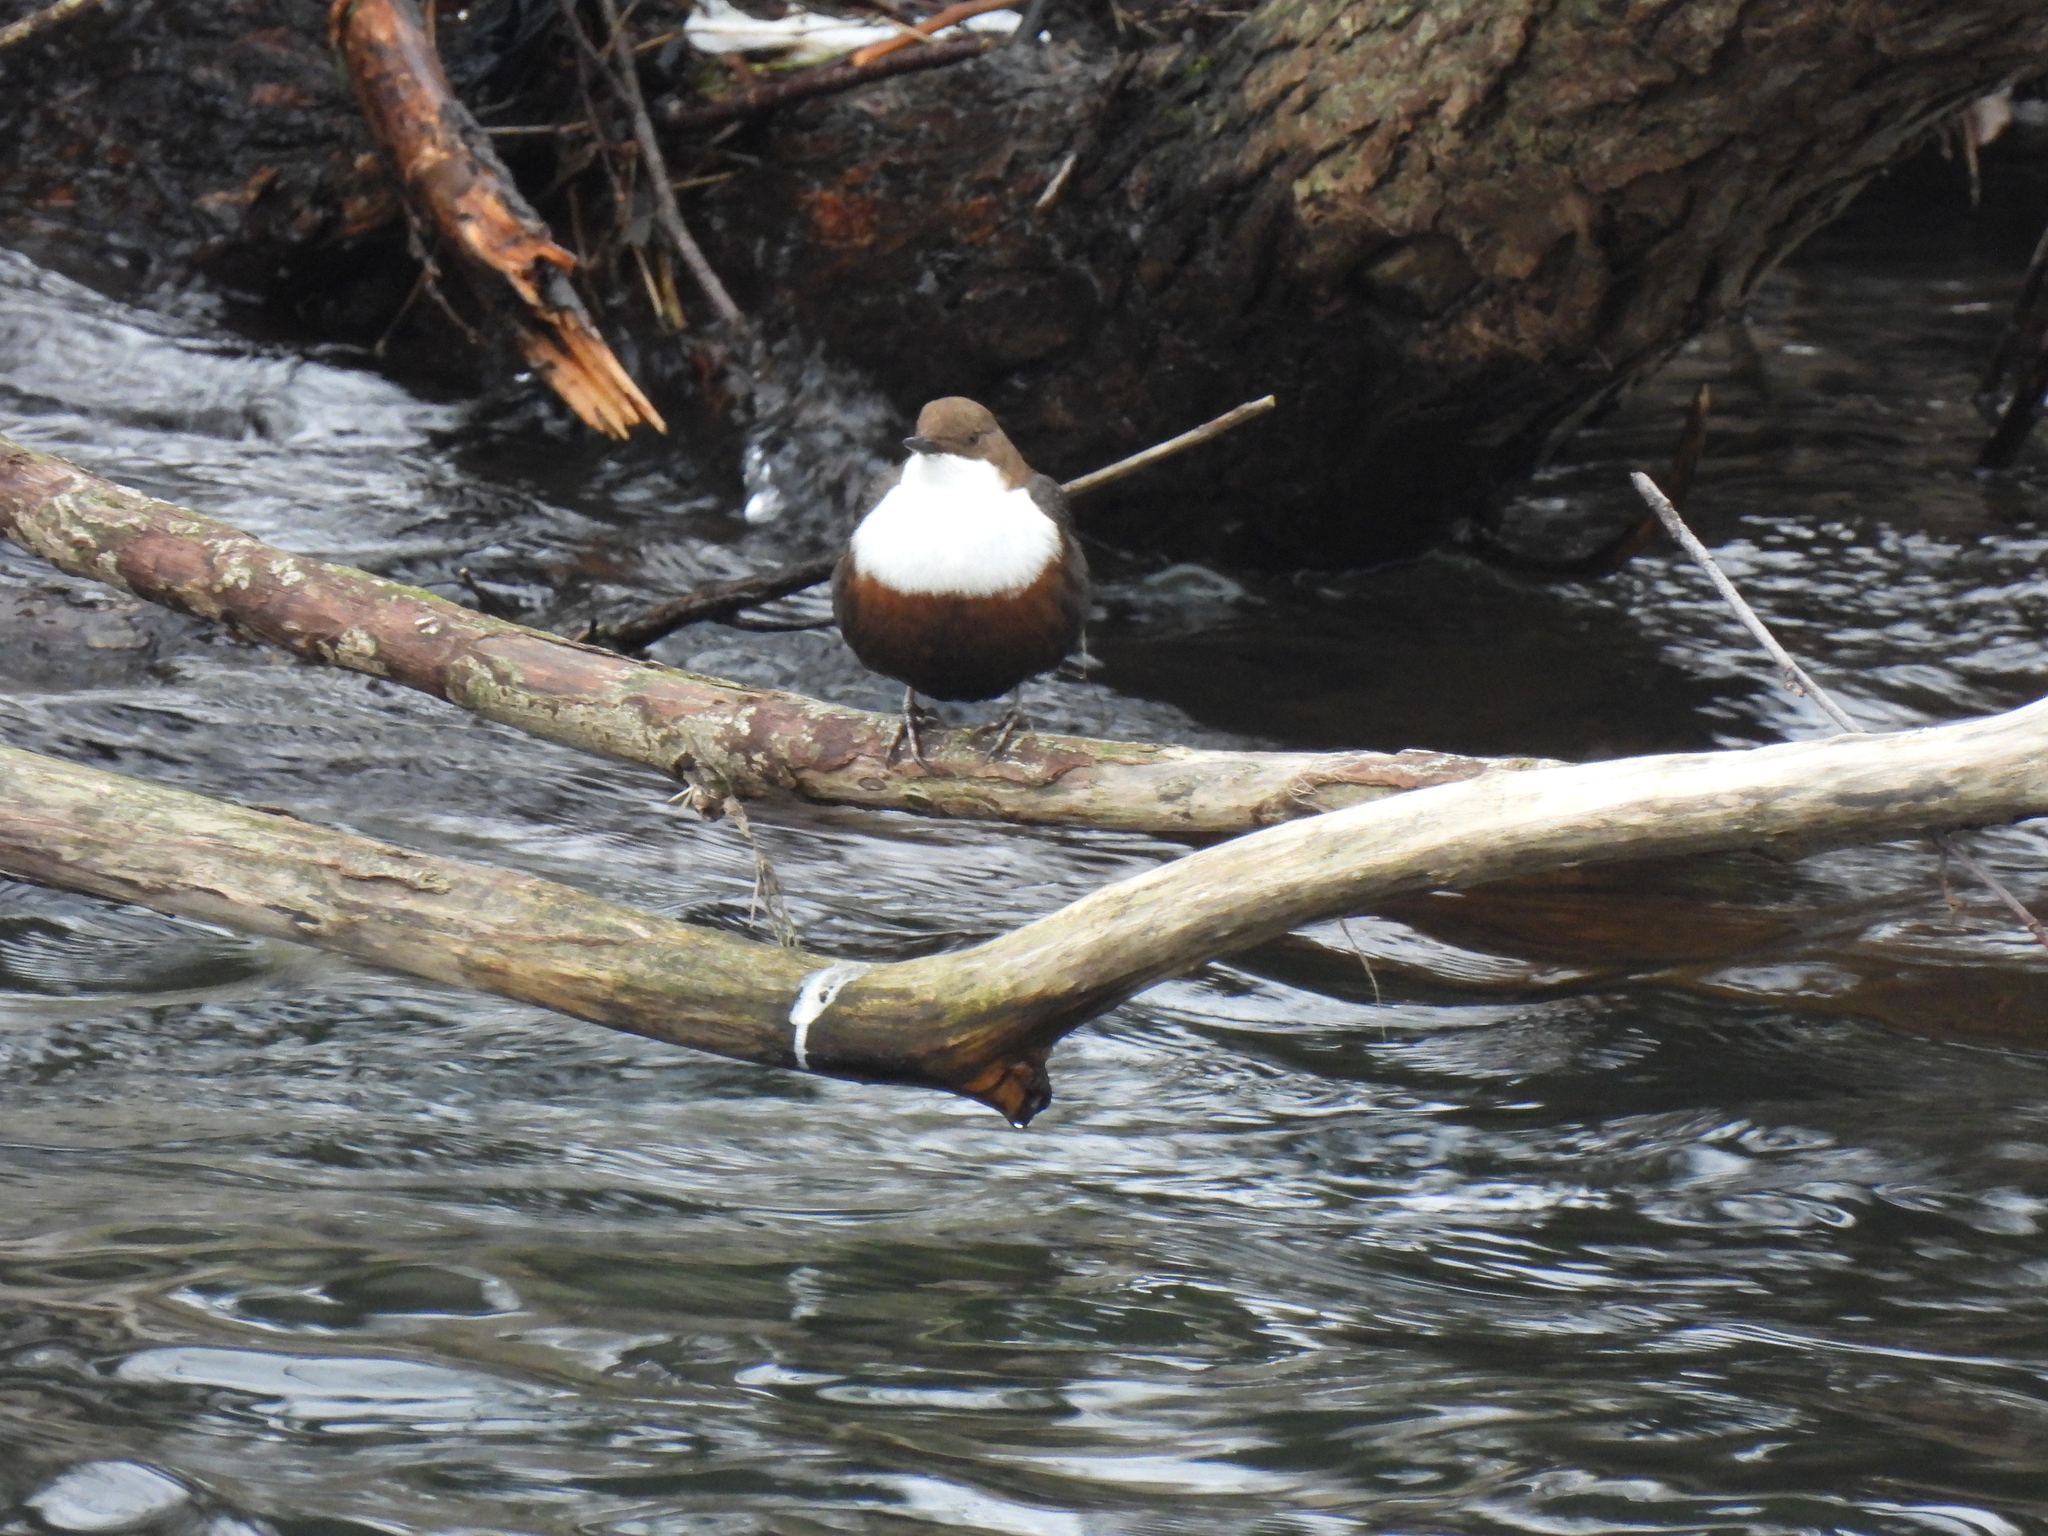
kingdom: Animalia
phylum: Chordata
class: Aves
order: Passeriformes
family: Cinclidae
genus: Cinclus
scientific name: Cinclus cinclus
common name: White-throated dipper
